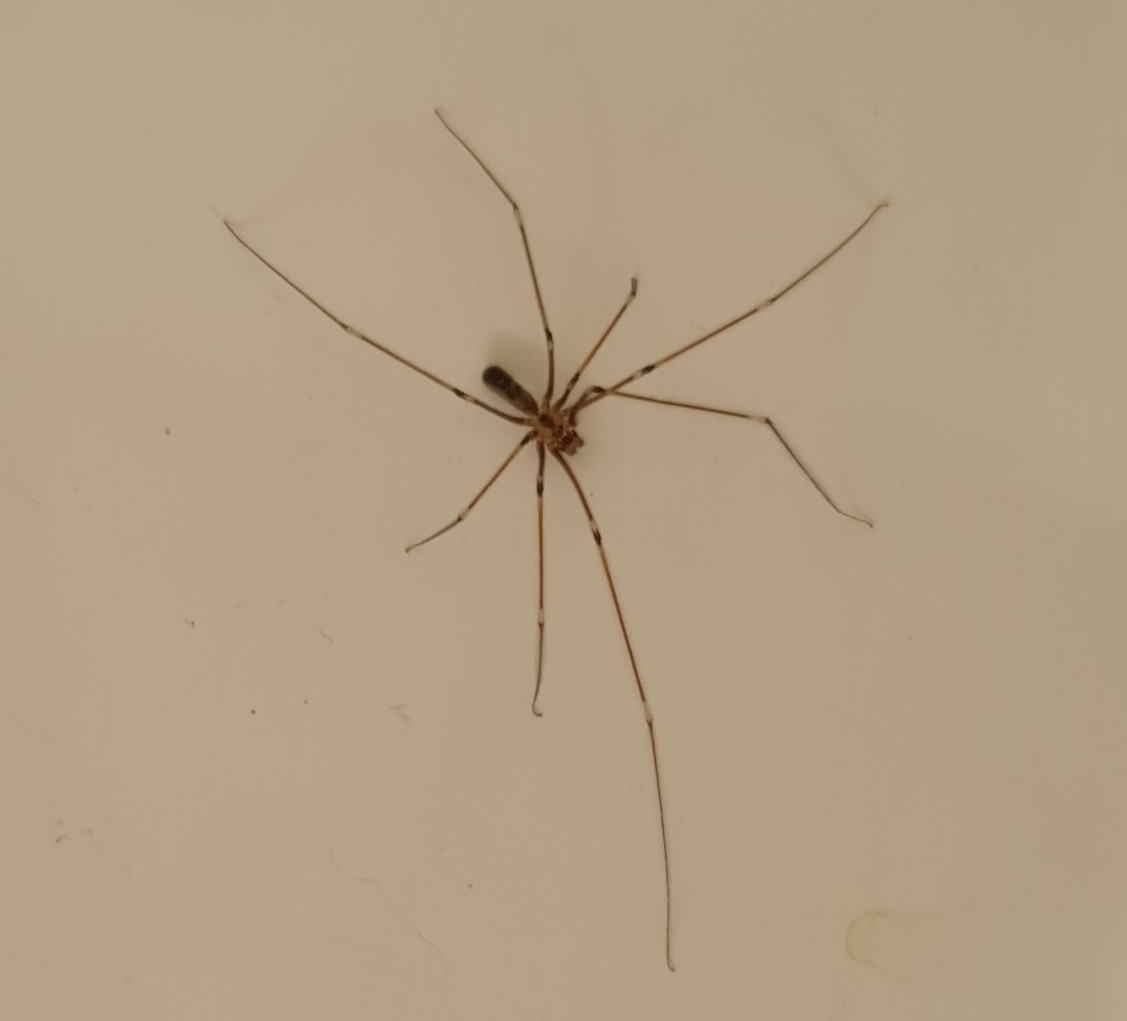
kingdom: Animalia
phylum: Arthropoda
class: Arachnida
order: Araneae
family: Pholcidae
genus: Pholcus
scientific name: Pholcus phalangioides
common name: Longbodied cellar spider
